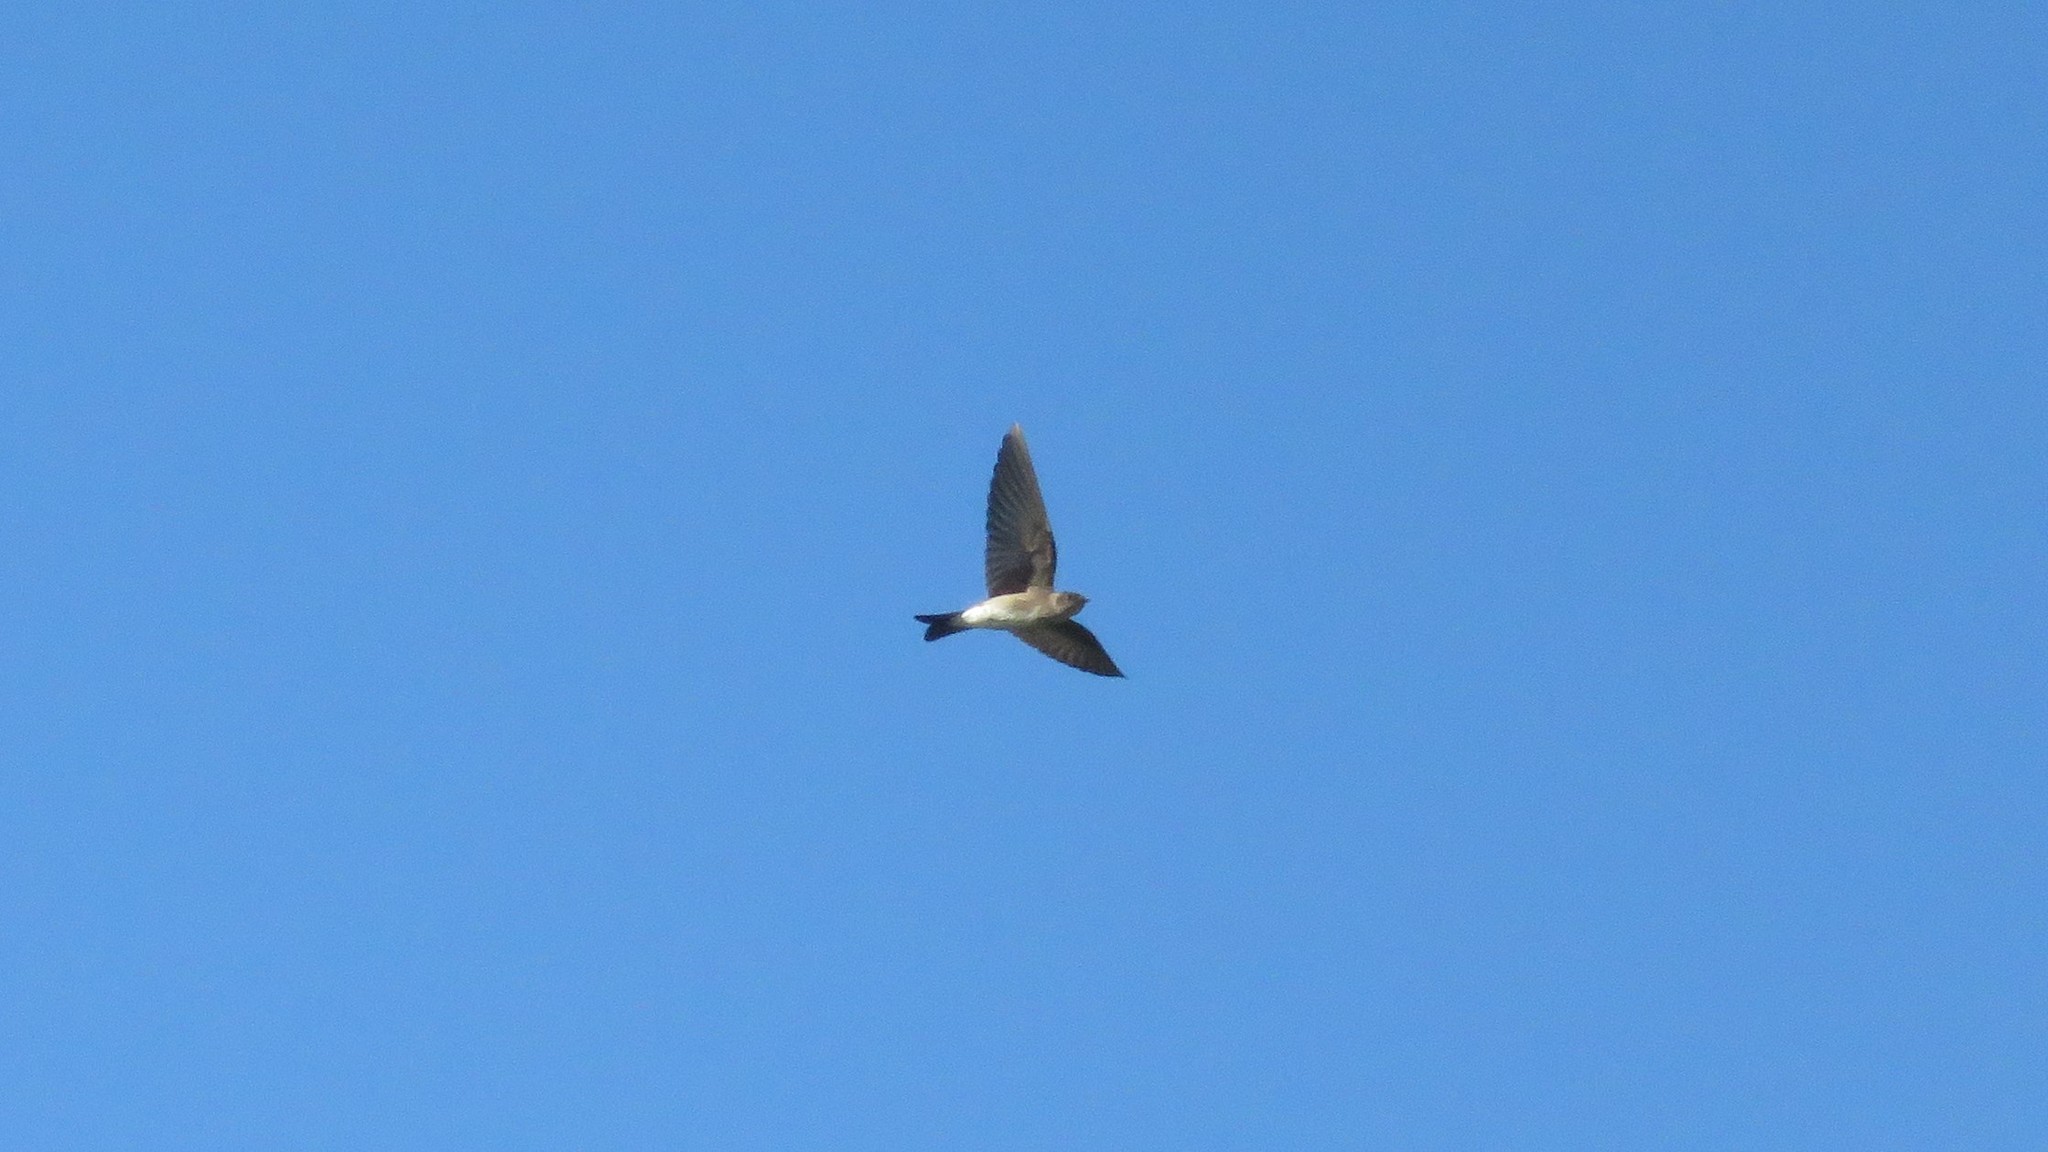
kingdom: Animalia
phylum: Chordata
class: Aves
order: Passeriformes
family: Hirundinidae
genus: Stelgidopteryx
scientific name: Stelgidopteryx serripennis
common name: Northern rough-winged swallow
